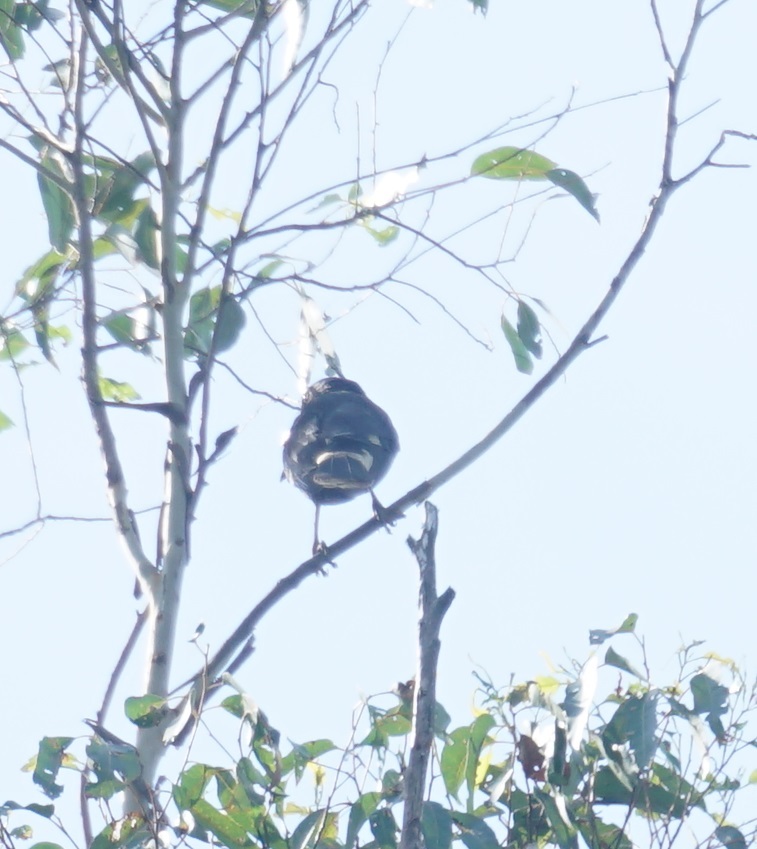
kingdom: Animalia
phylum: Chordata
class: Aves
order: Passeriformes
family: Cracticidae
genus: Gymnorhina
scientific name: Gymnorhina tibicen
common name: Australian magpie
